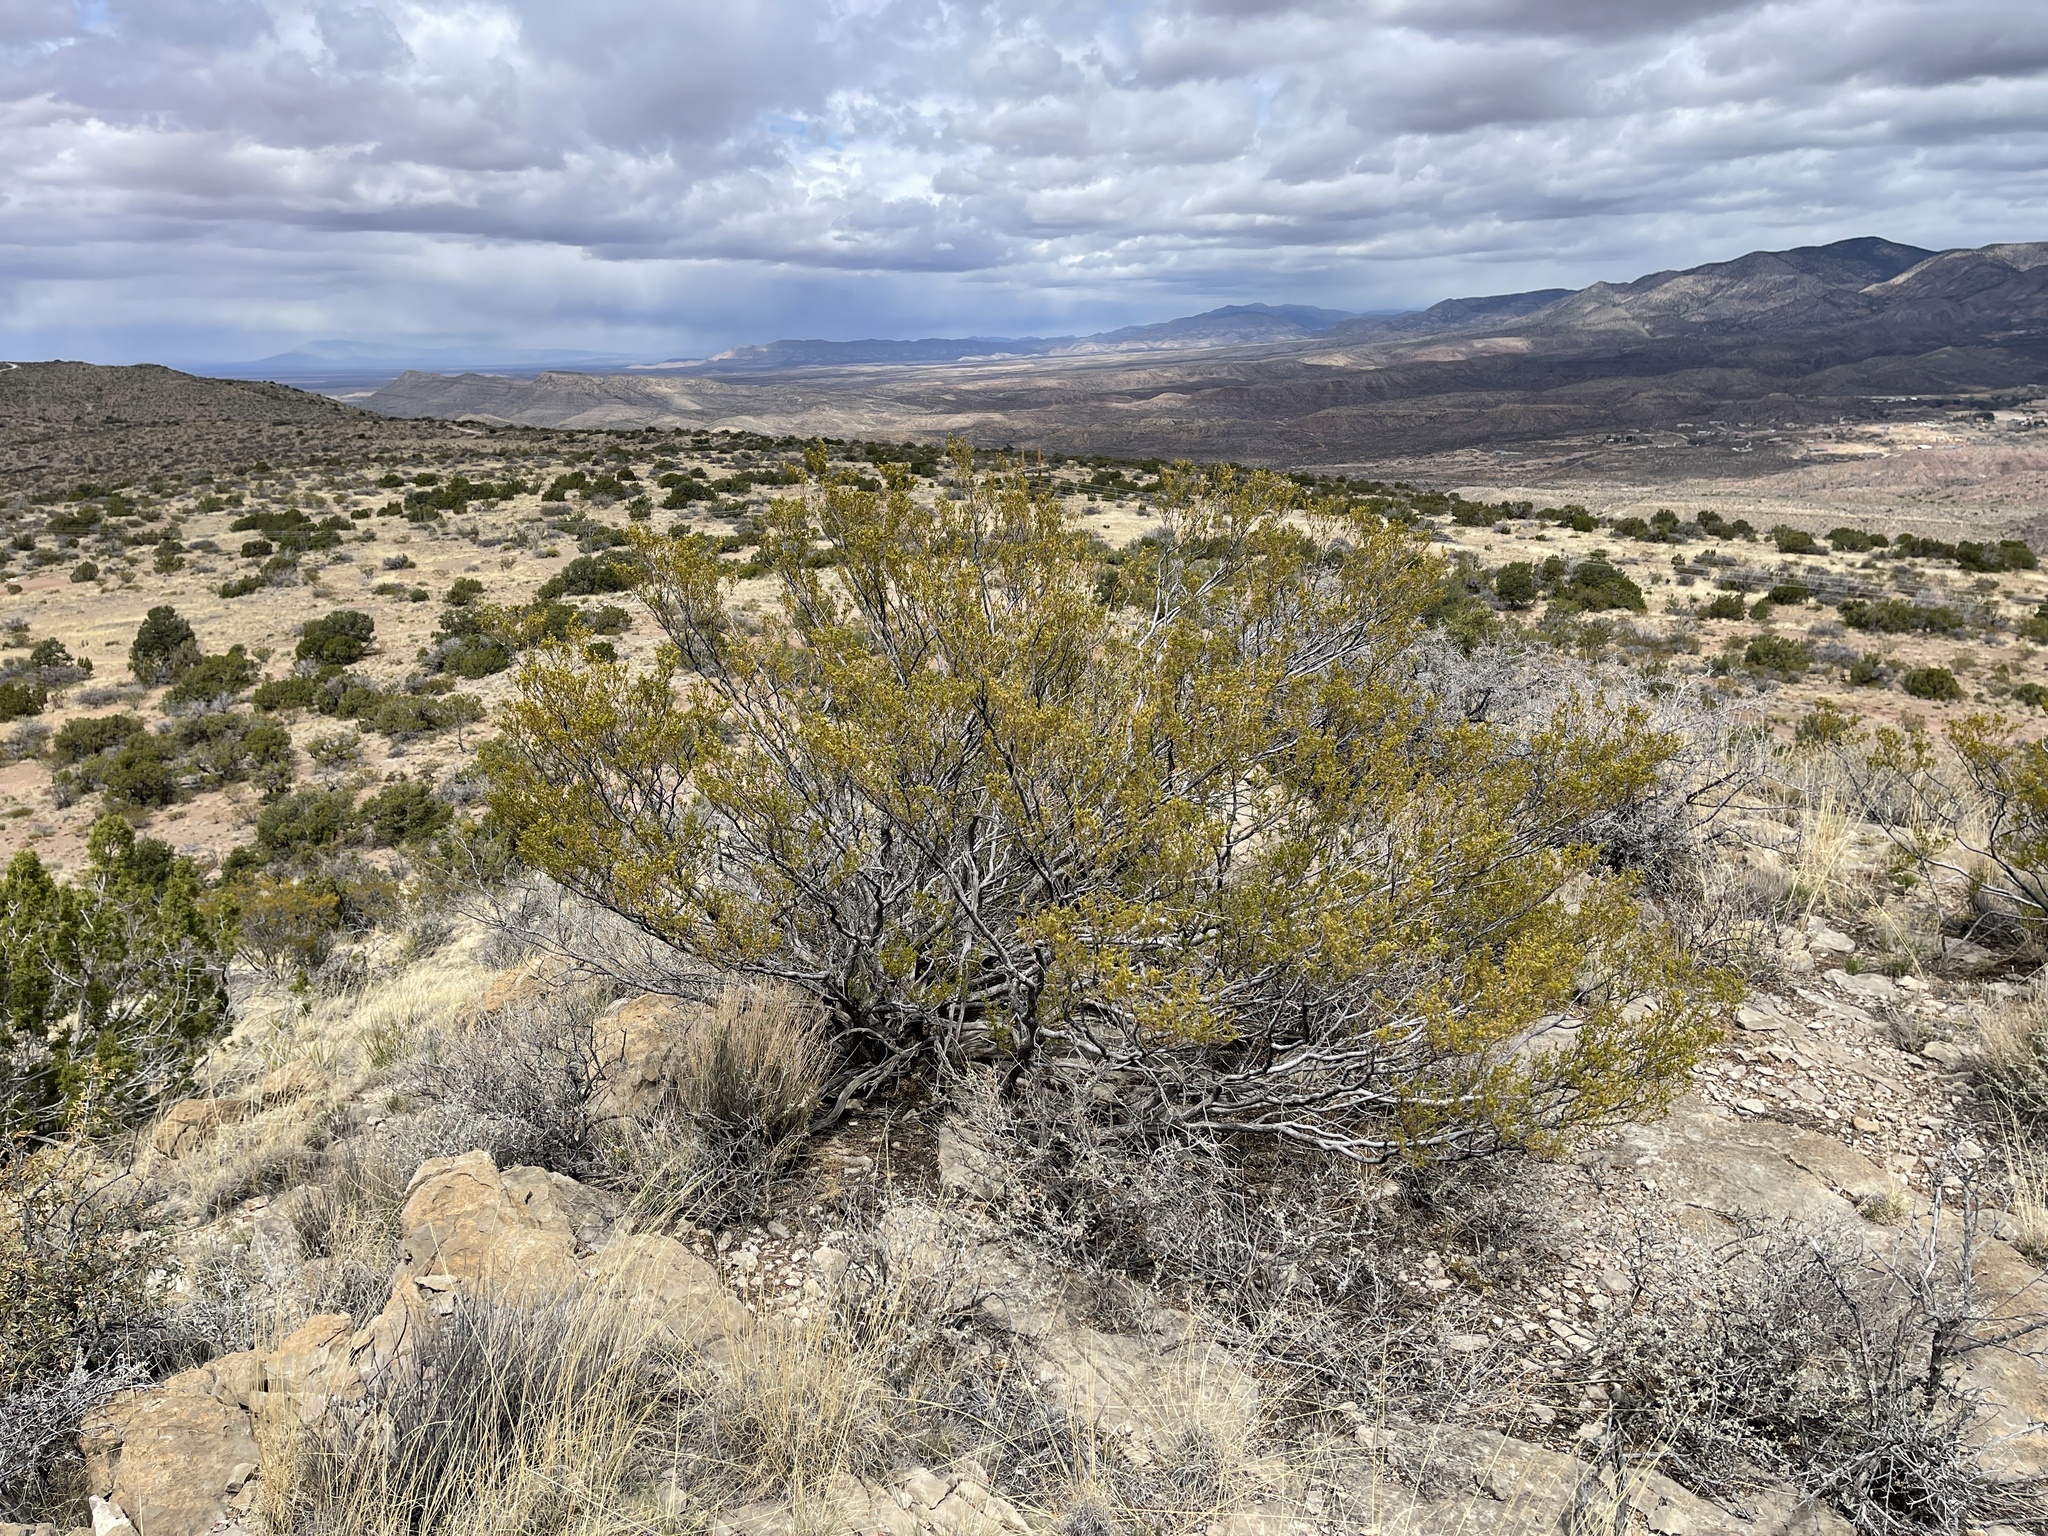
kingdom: Plantae
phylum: Tracheophyta
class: Magnoliopsida
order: Zygophyllales
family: Zygophyllaceae
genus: Larrea
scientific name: Larrea tridentata
